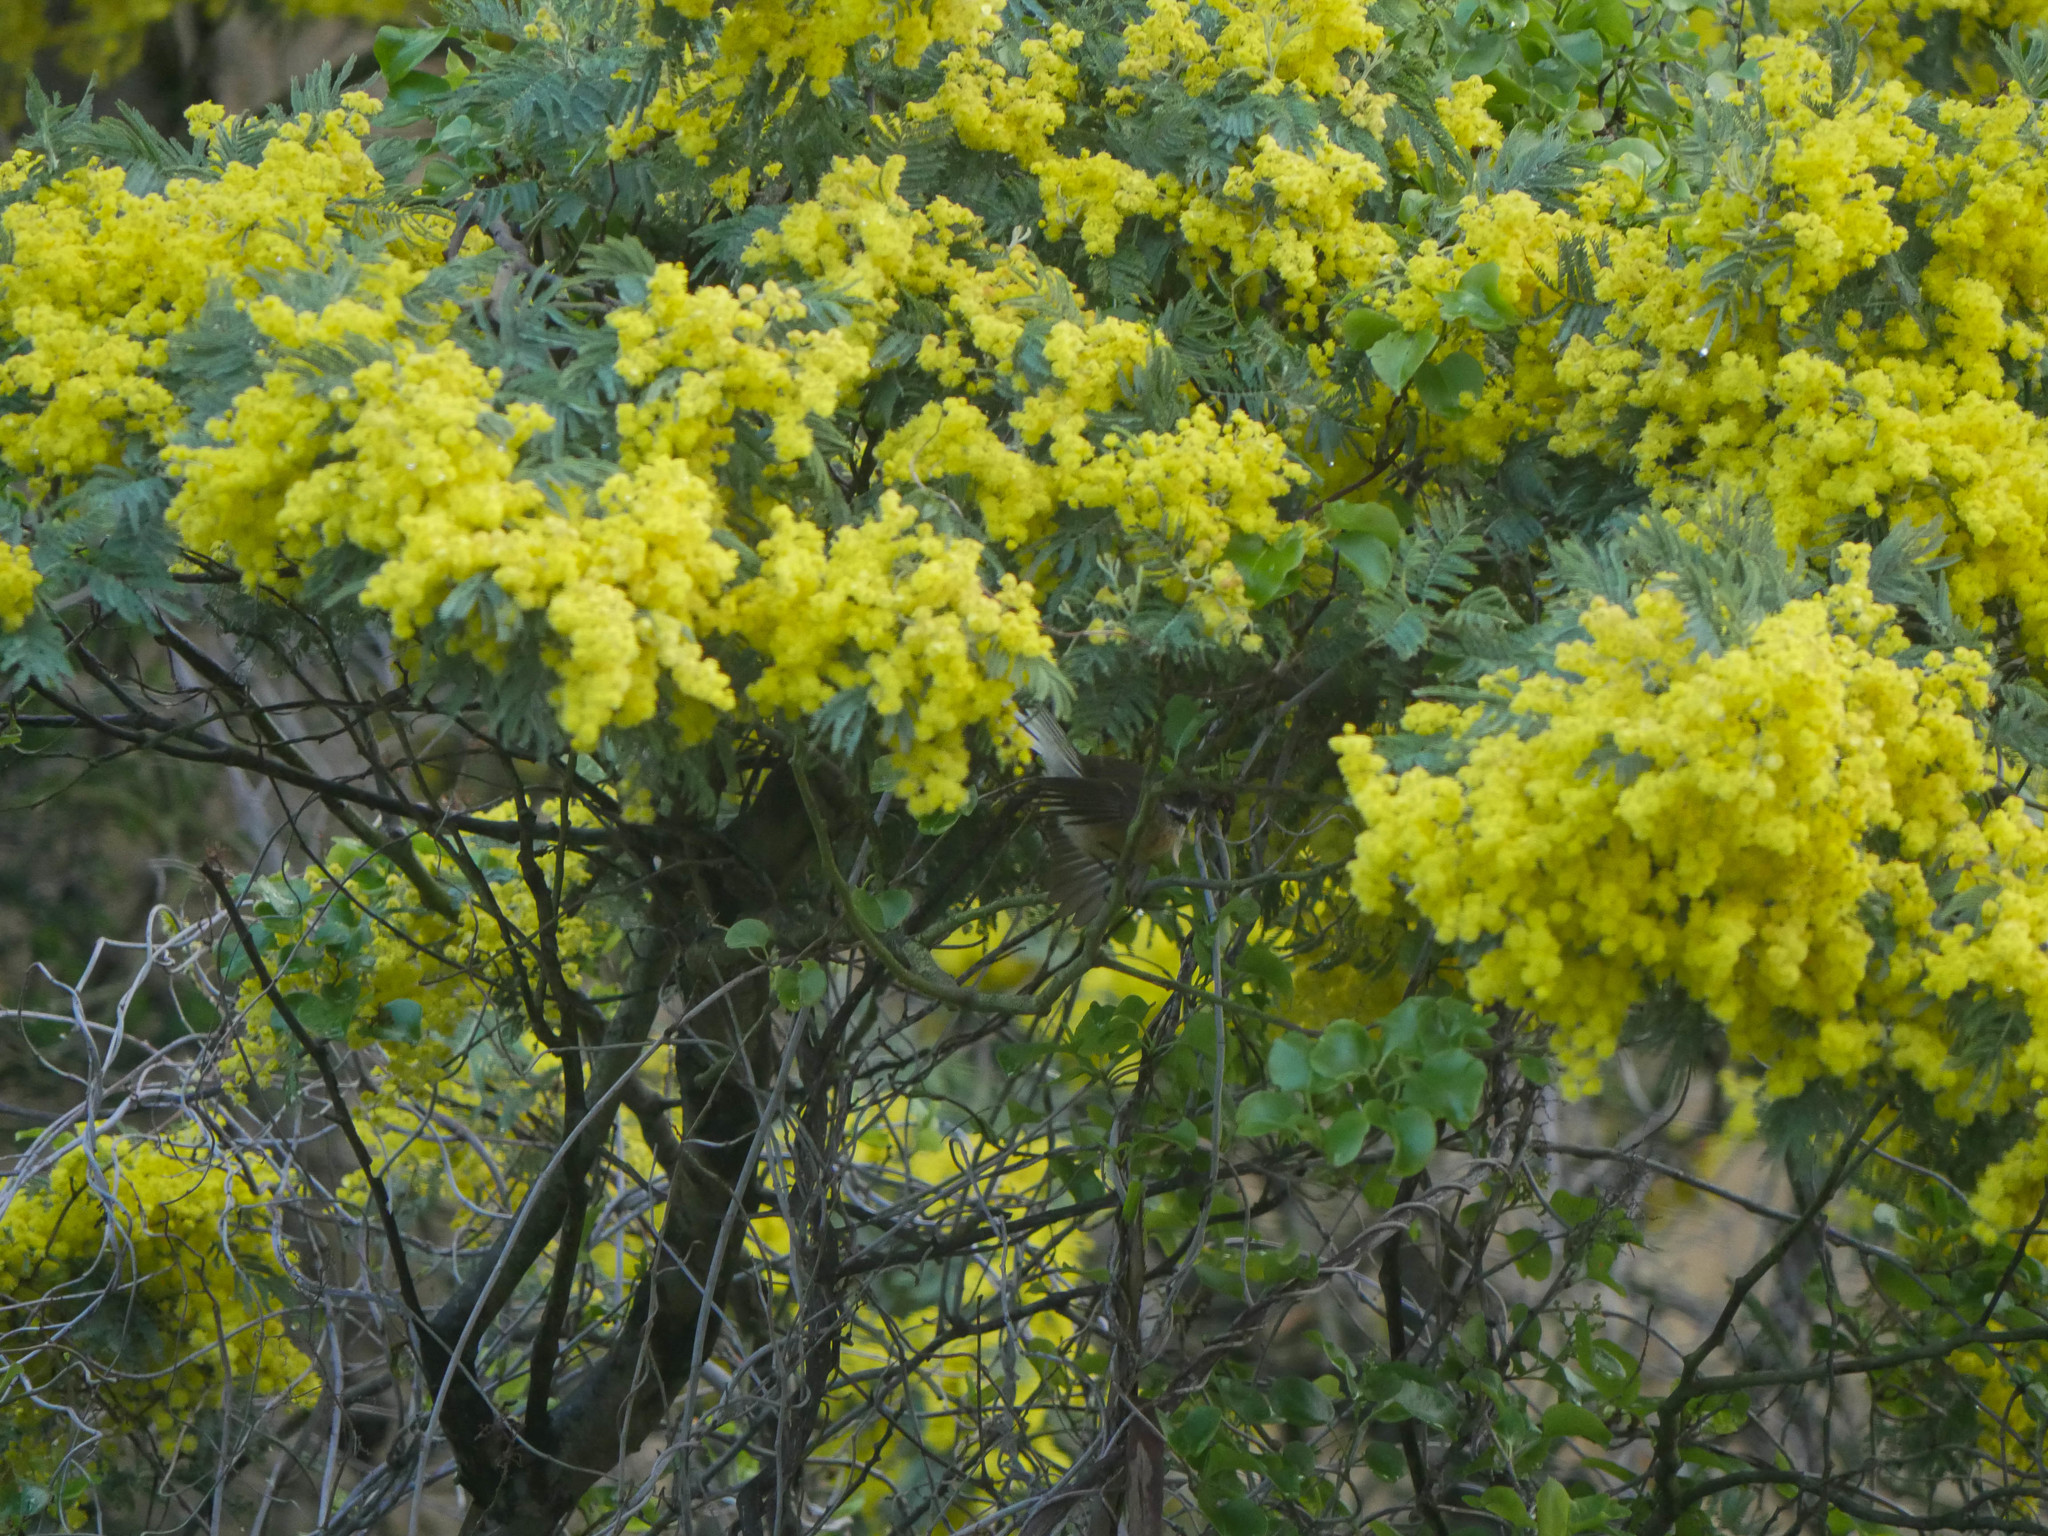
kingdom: Animalia
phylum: Chordata
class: Aves
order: Passeriformes
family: Rhipiduridae
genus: Rhipidura
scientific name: Rhipidura fuliginosa
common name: New zealand fantail
